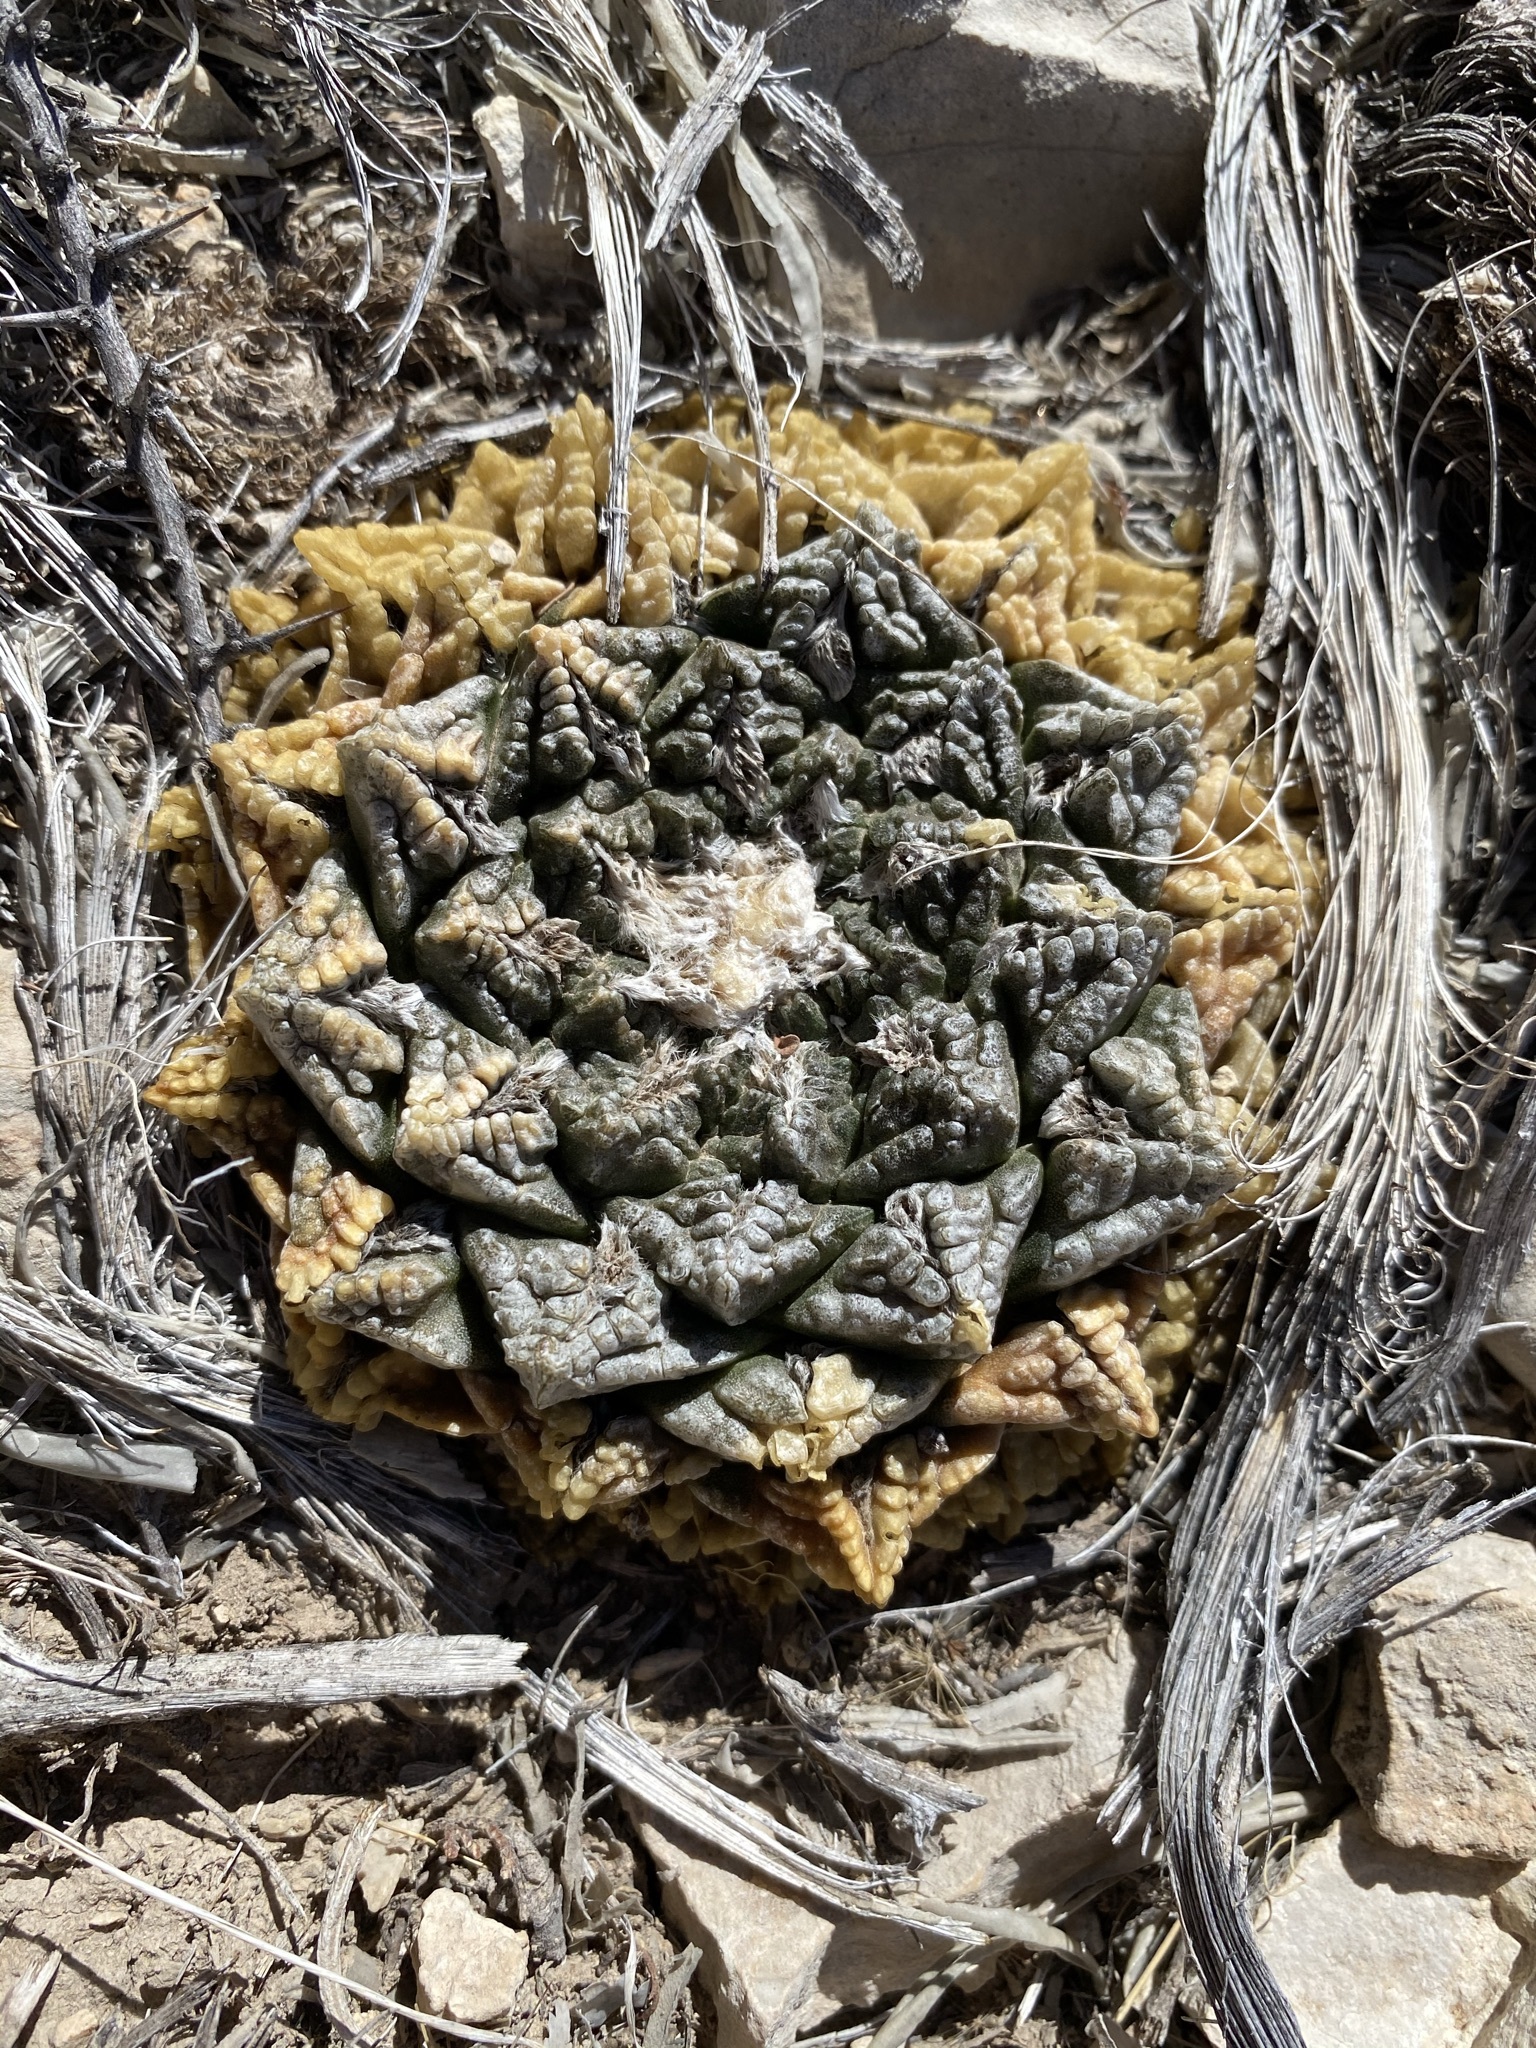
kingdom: Plantae
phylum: Tracheophyta
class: Magnoliopsida
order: Caryophyllales
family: Cactaceae
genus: Ariocarpus
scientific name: Ariocarpus fissuratus
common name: Chautle-living rock
